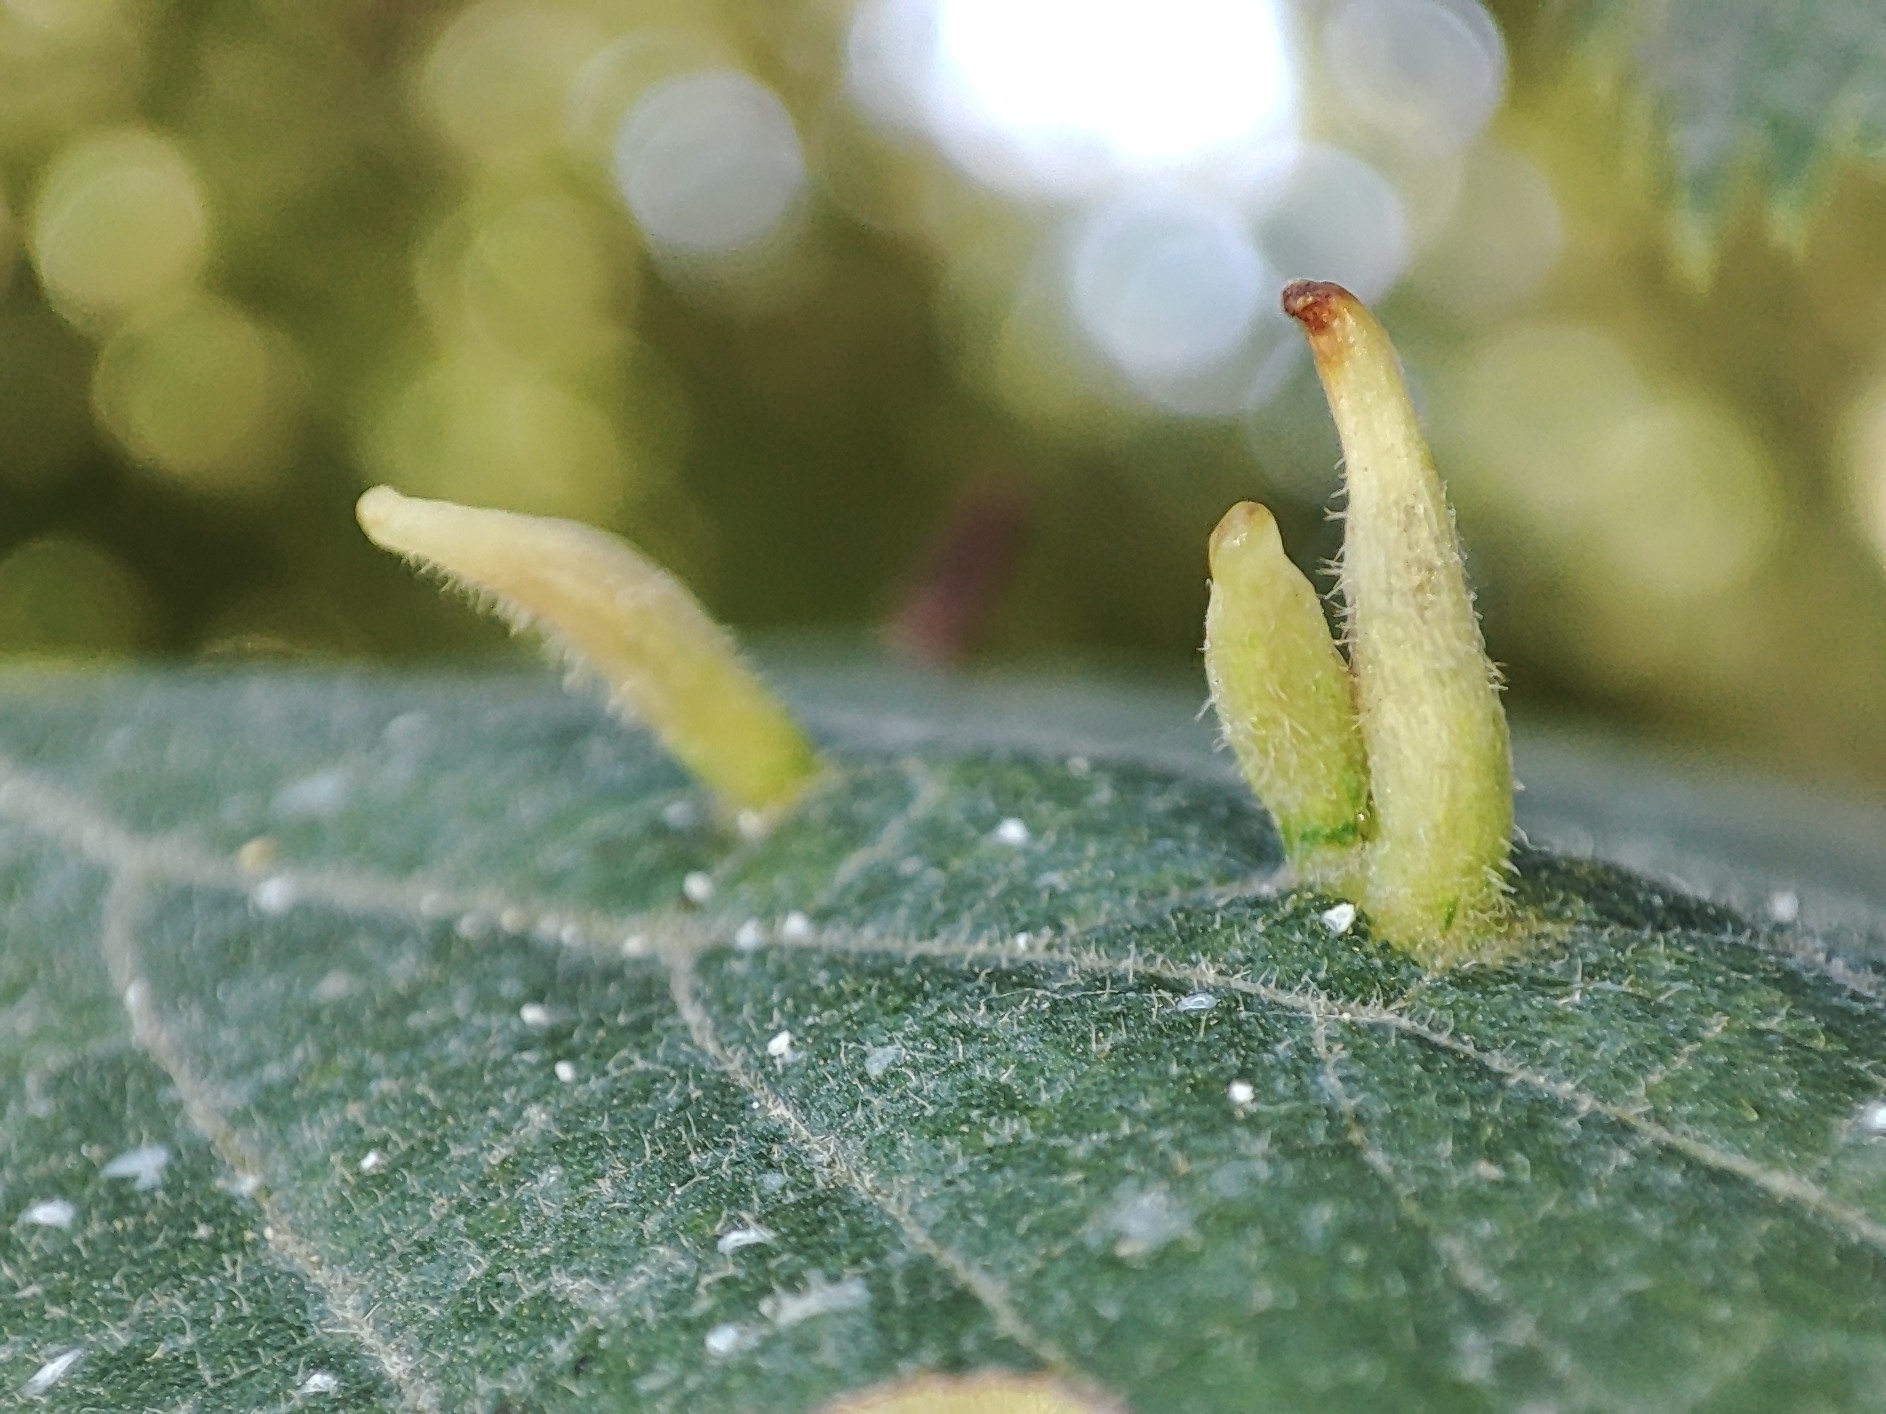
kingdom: Animalia
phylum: Arthropoda
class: Arachnida
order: Trombidiformes
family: Eriophyidae
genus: Eriophyes
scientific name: Eriophyes tiliae
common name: Red nail gall mite
